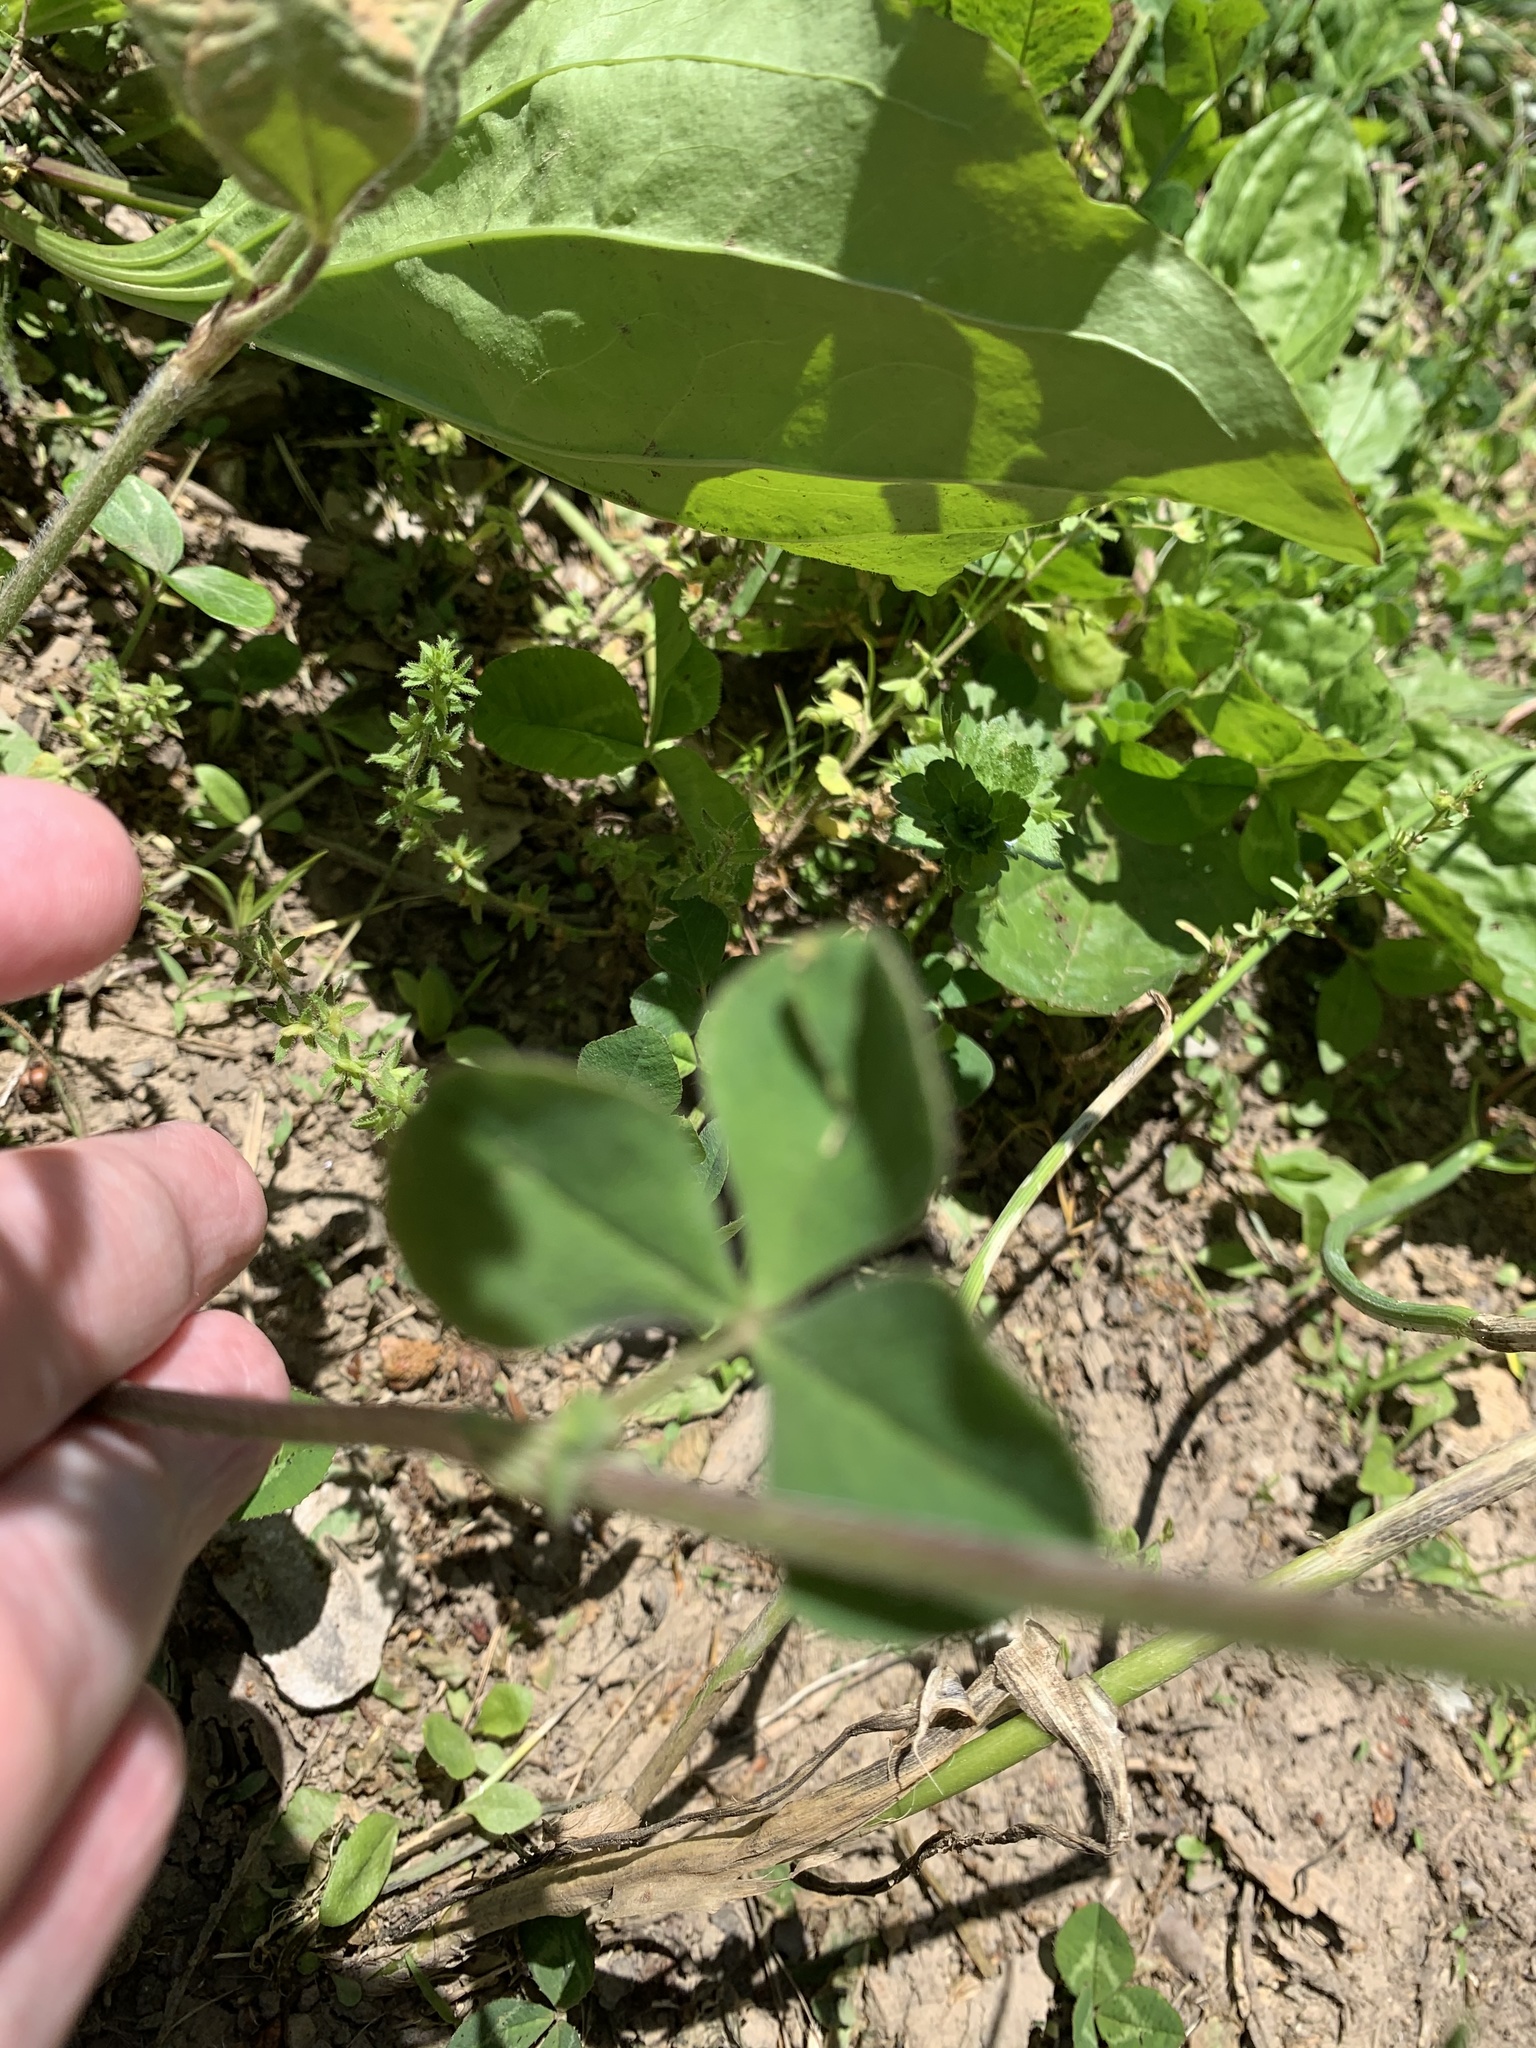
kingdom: Plantae
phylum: Tracheophyta
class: Magnoliopsida
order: Fabales
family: Fabaceae
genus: Trifolium
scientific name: Trifolium incarnatum
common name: Crimson clover
